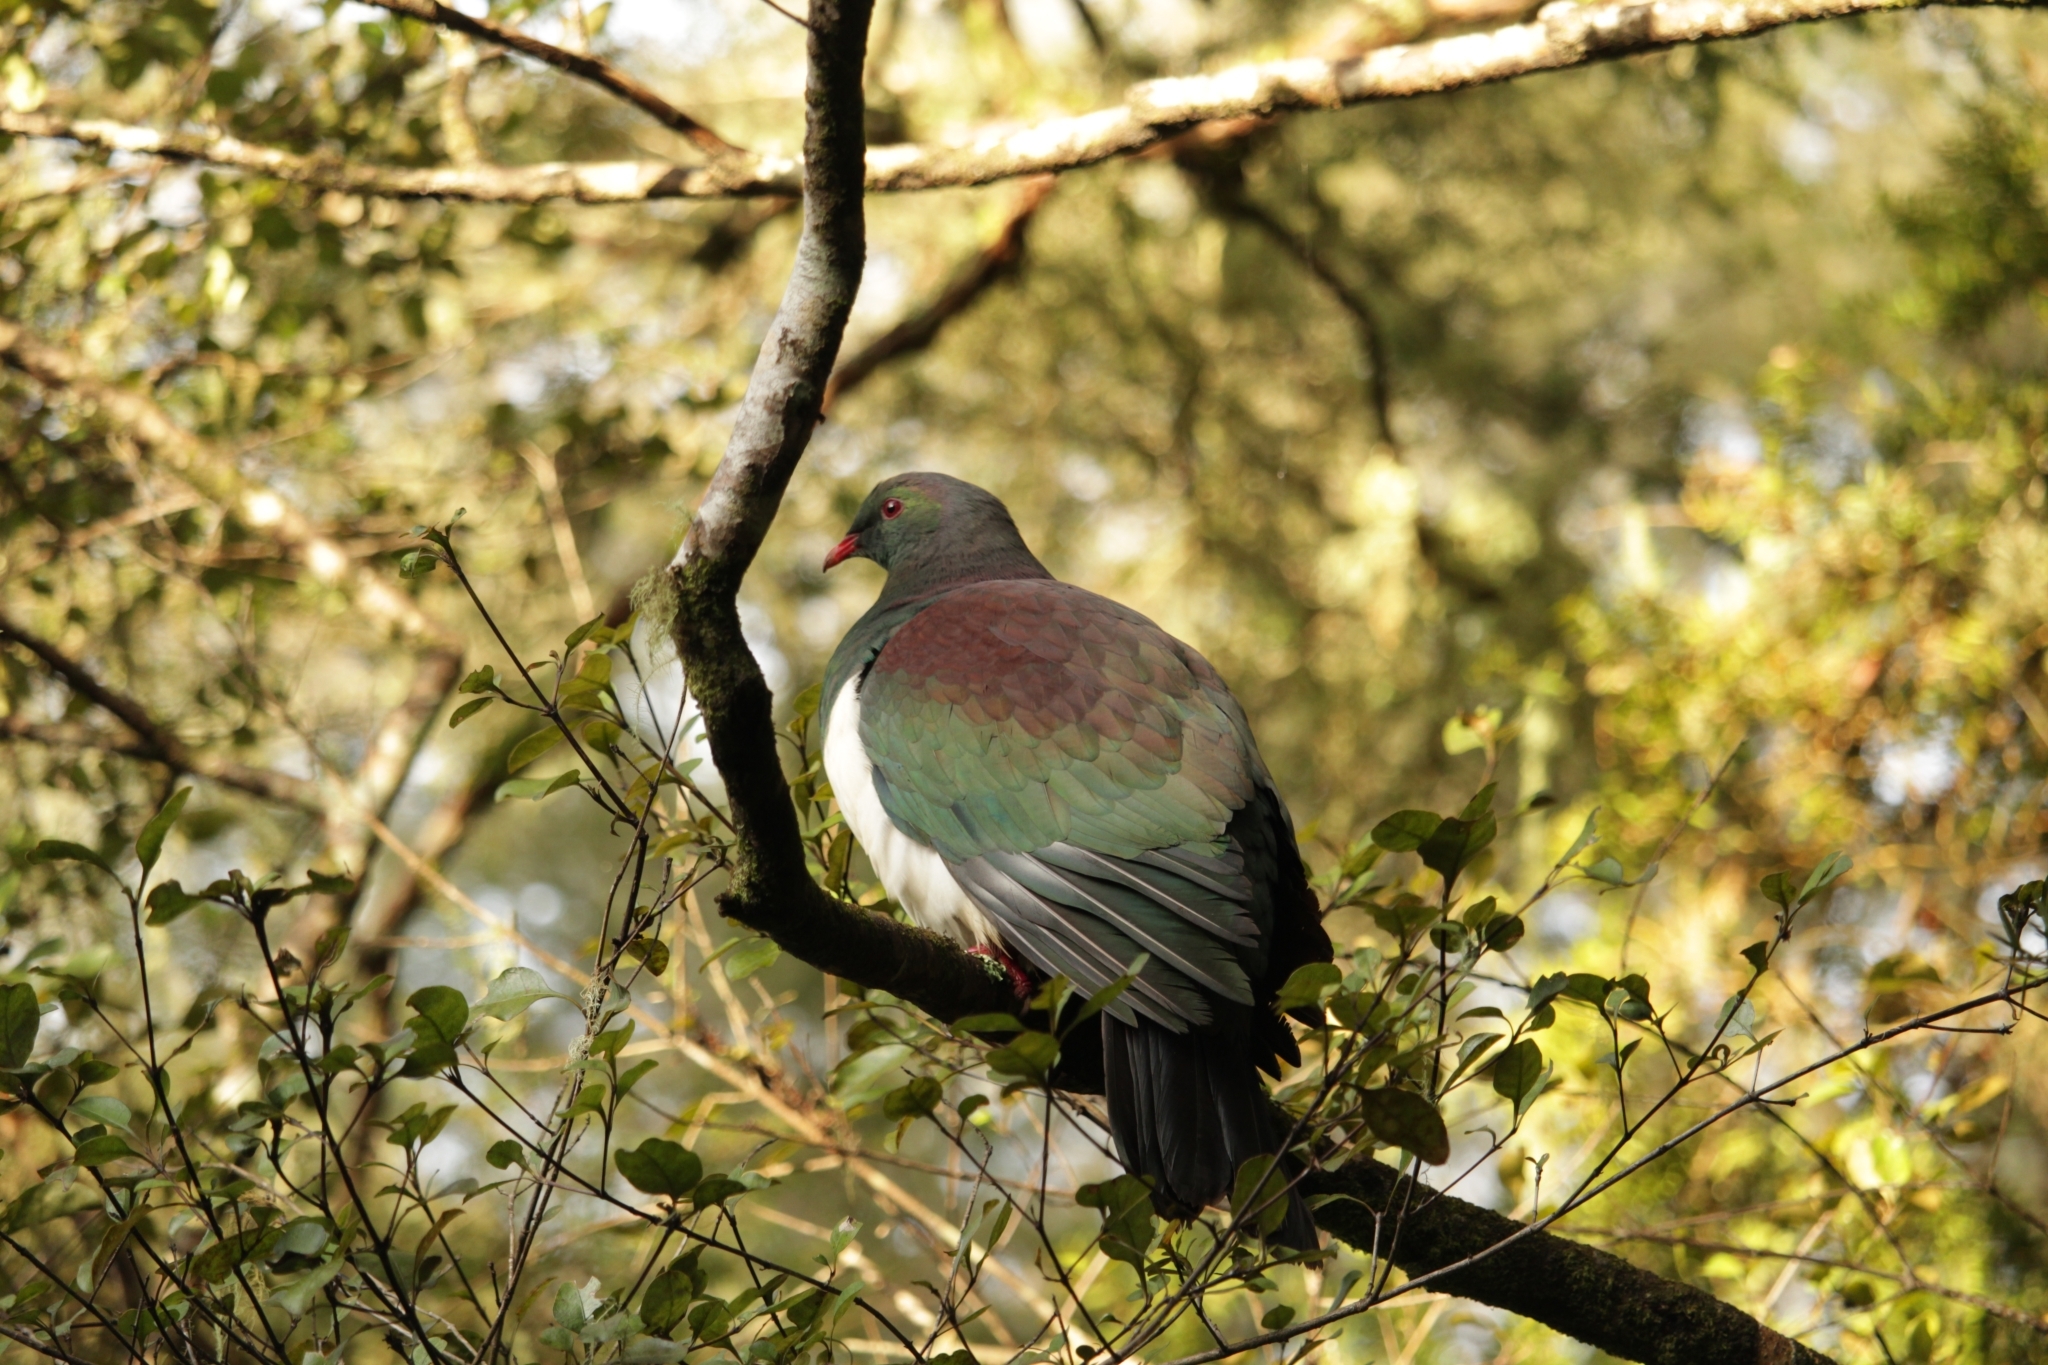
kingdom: Animalia
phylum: Chordata
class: Aves
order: Columbiformes
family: Columbidae
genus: Hemiphaga
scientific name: Hemiphaga novaeseelandiae
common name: New zealand pigeon
